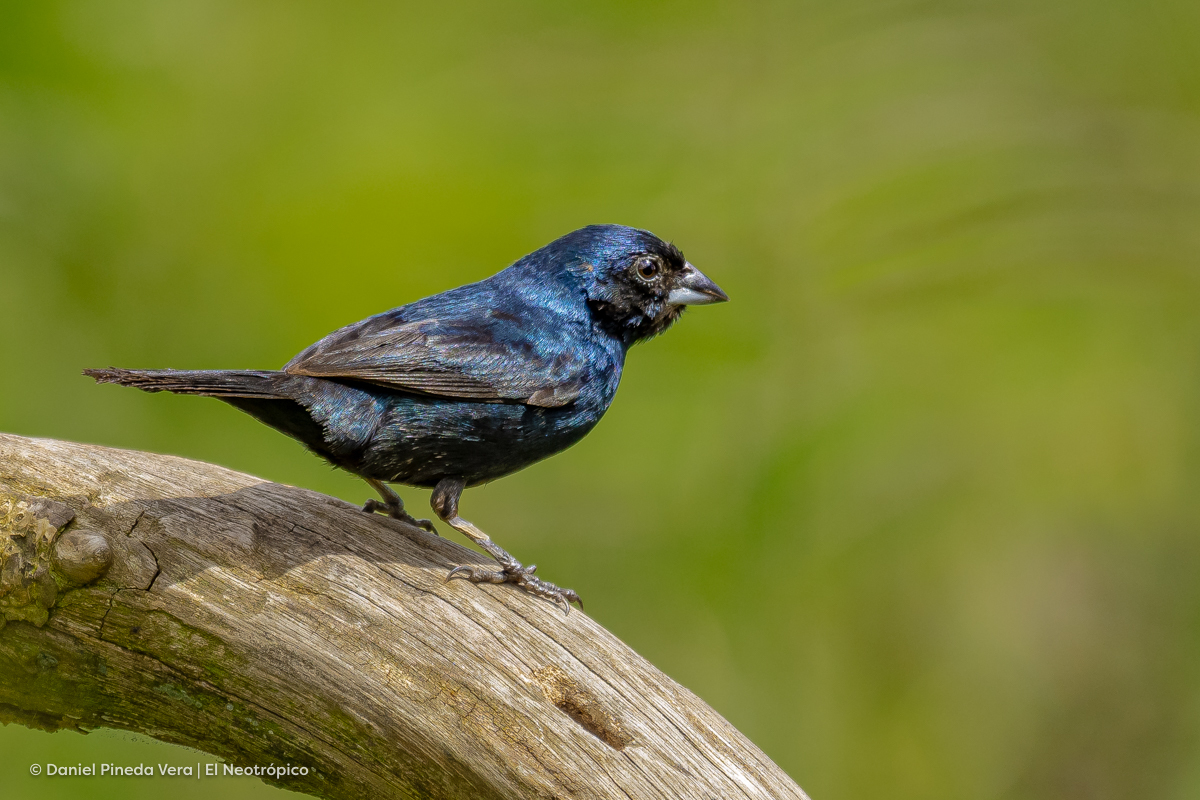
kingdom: Animalia
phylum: Chordata
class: Aves
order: Passeriformes
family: Thraupidae
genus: Volatinia
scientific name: Volatinia jacarina
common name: Blue-black grassquit
